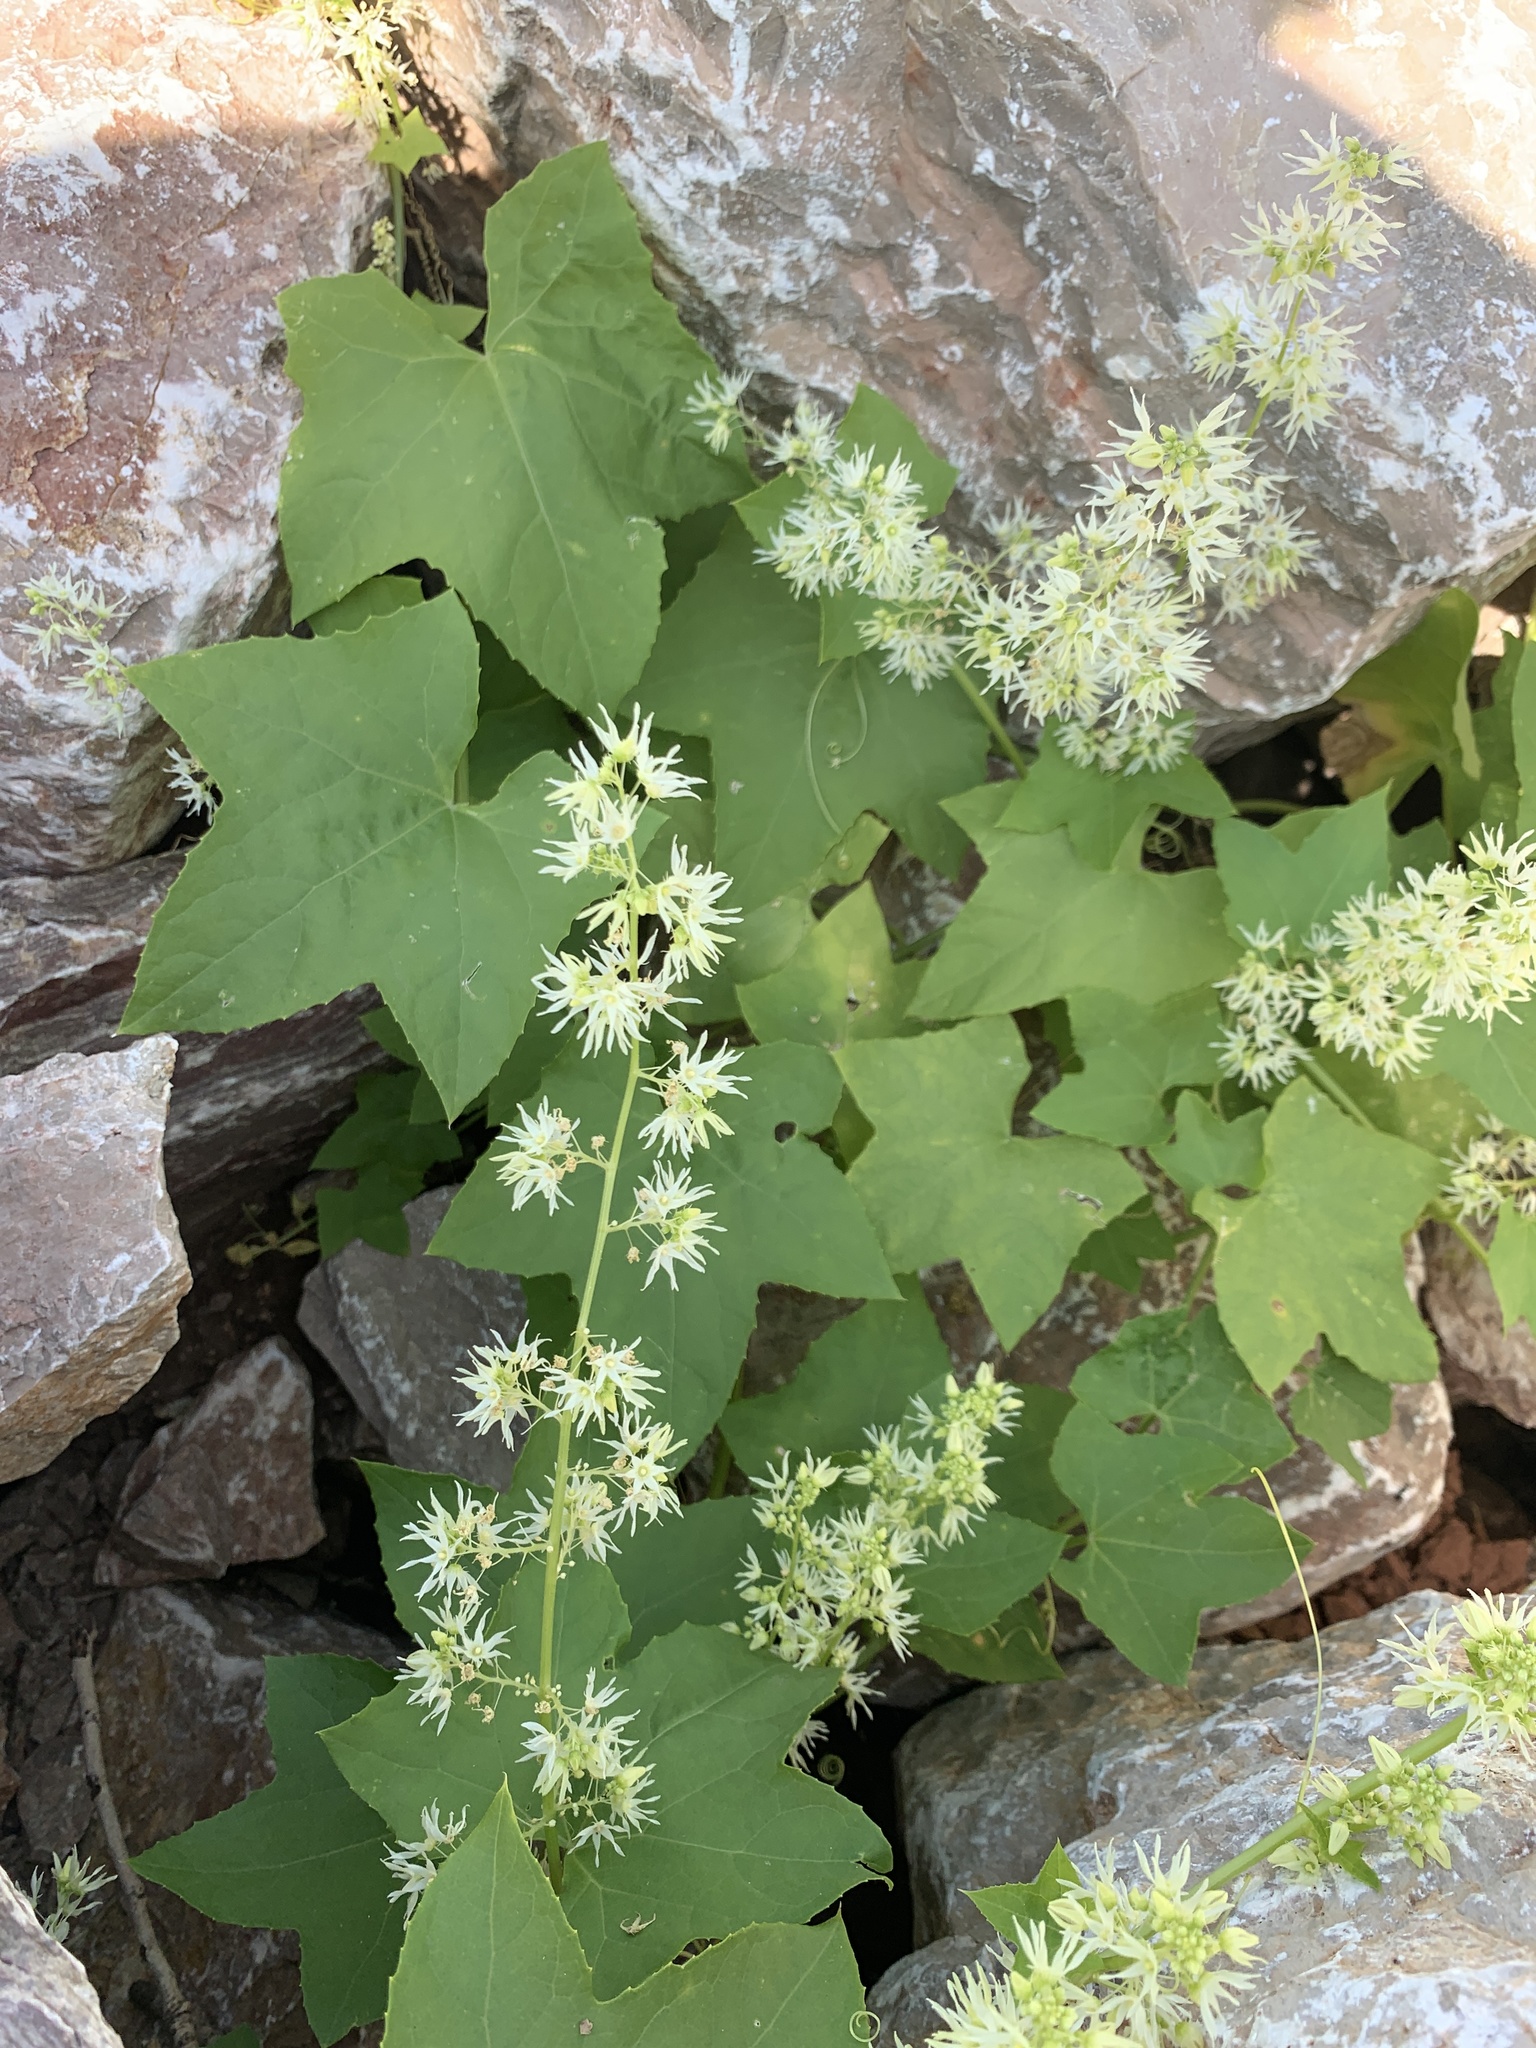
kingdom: Plantae
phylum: Tracheophyta
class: Magnoliopsida
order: Cucurbitales
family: Cucurbitaceae
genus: Echinocystis
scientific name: Echinocystis lobata
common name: Wild cucumber
